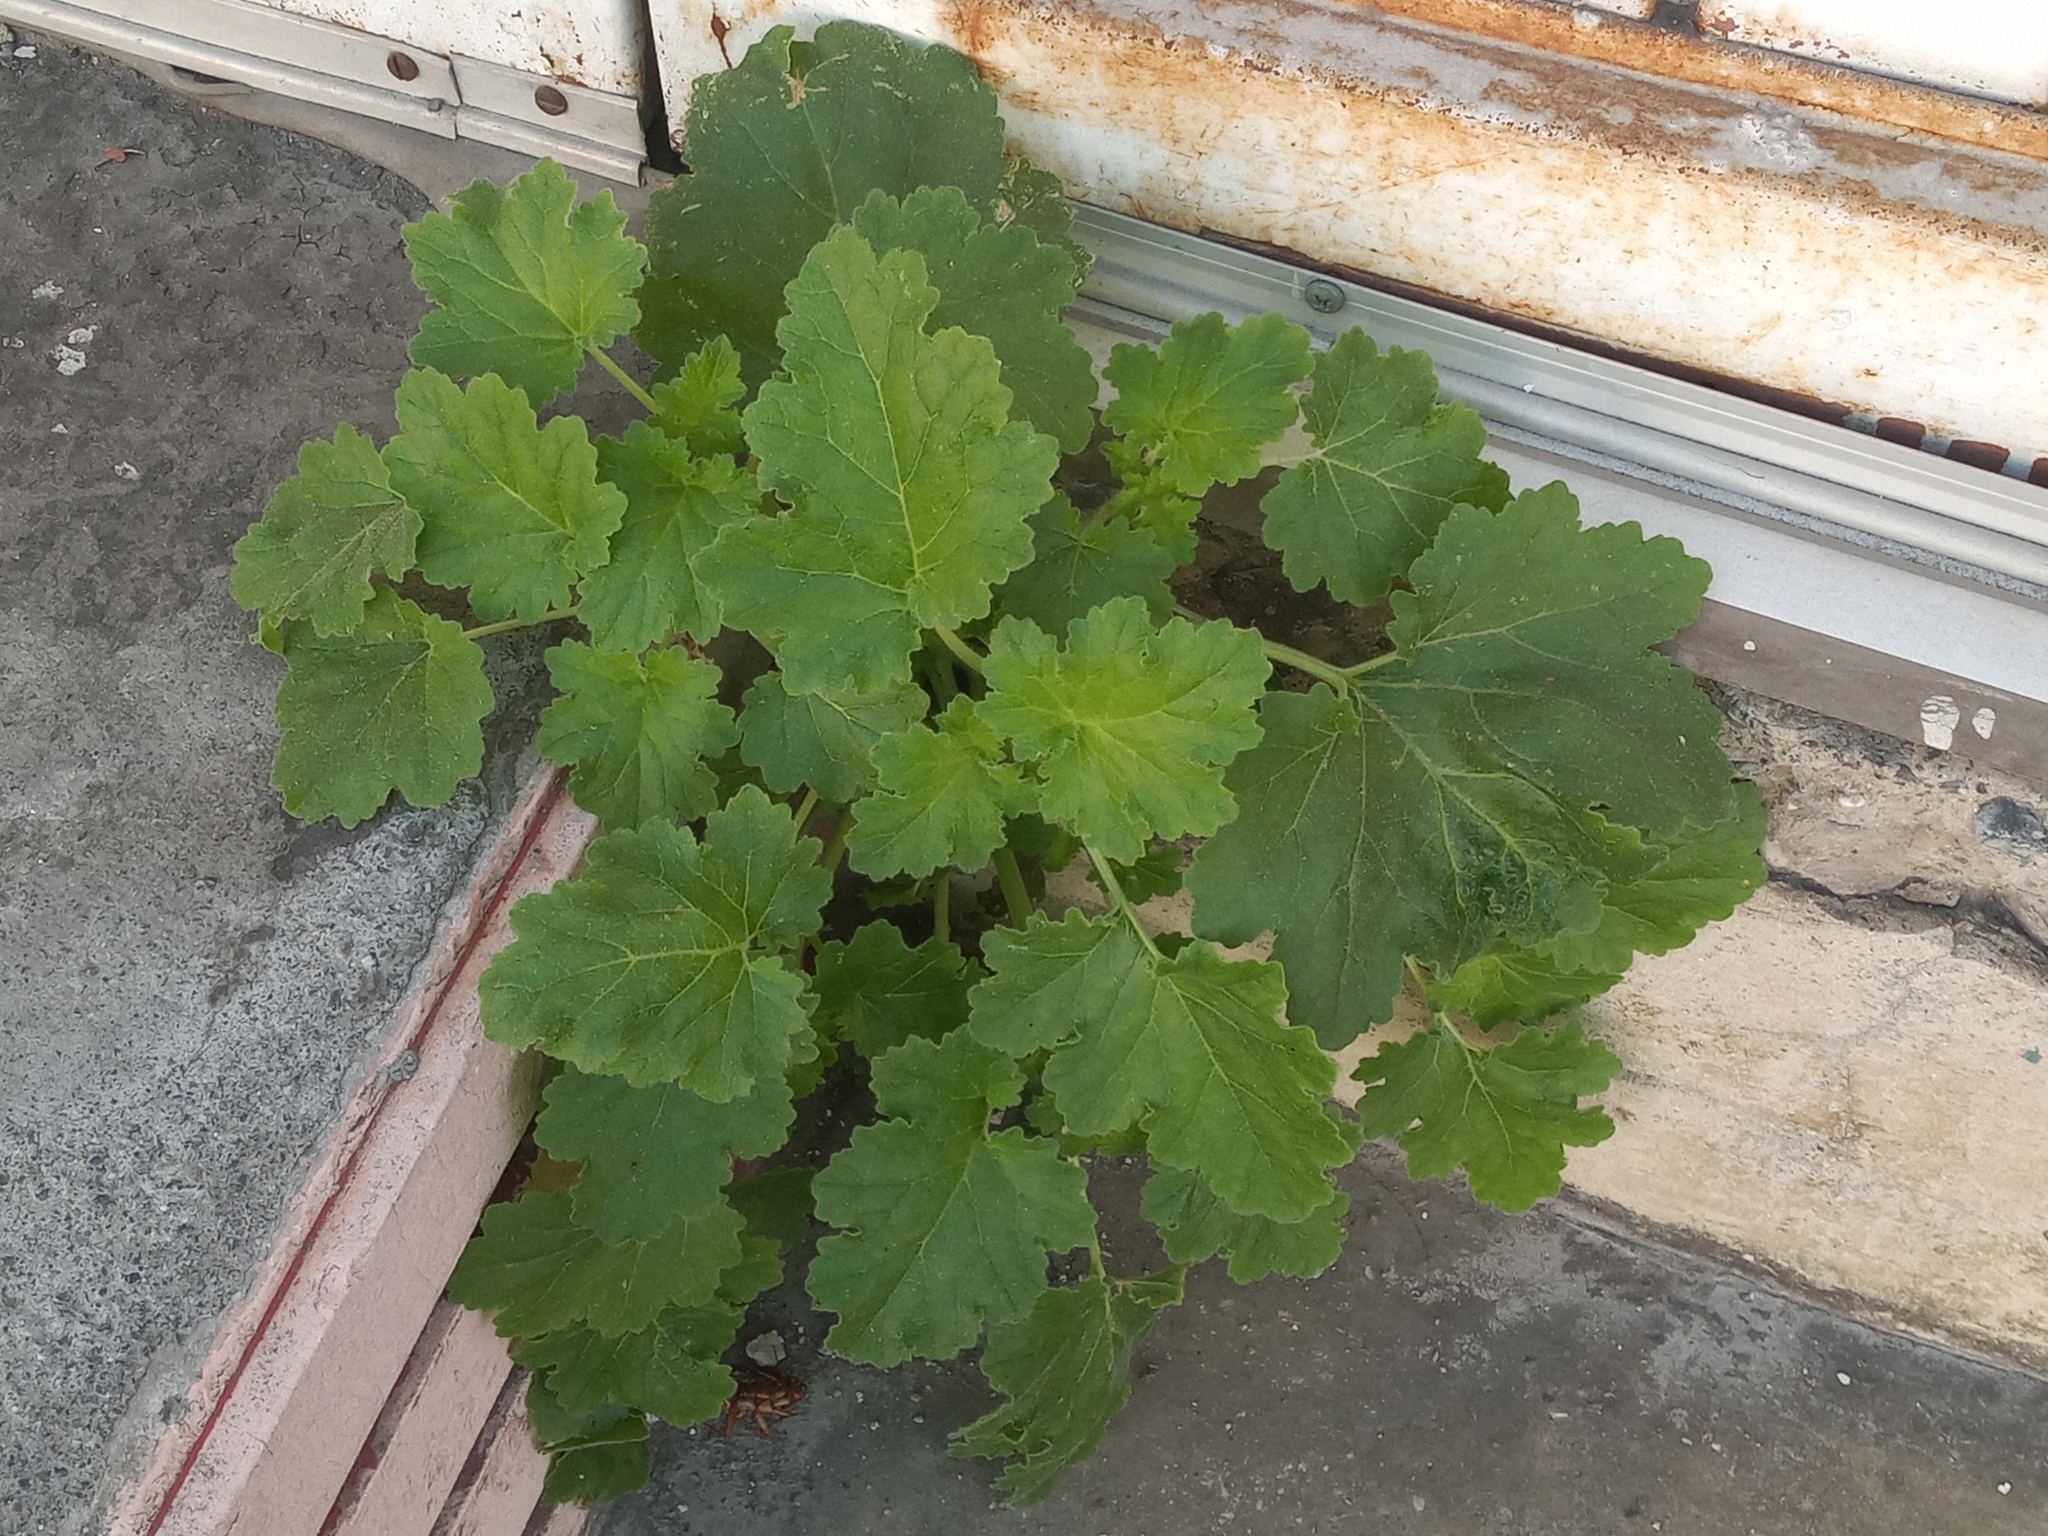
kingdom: Plantae
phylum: Tracheophyta
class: Magnoliopsida
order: Cornales
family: Loasaceae
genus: Eucnide
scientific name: Eucnide lobata
